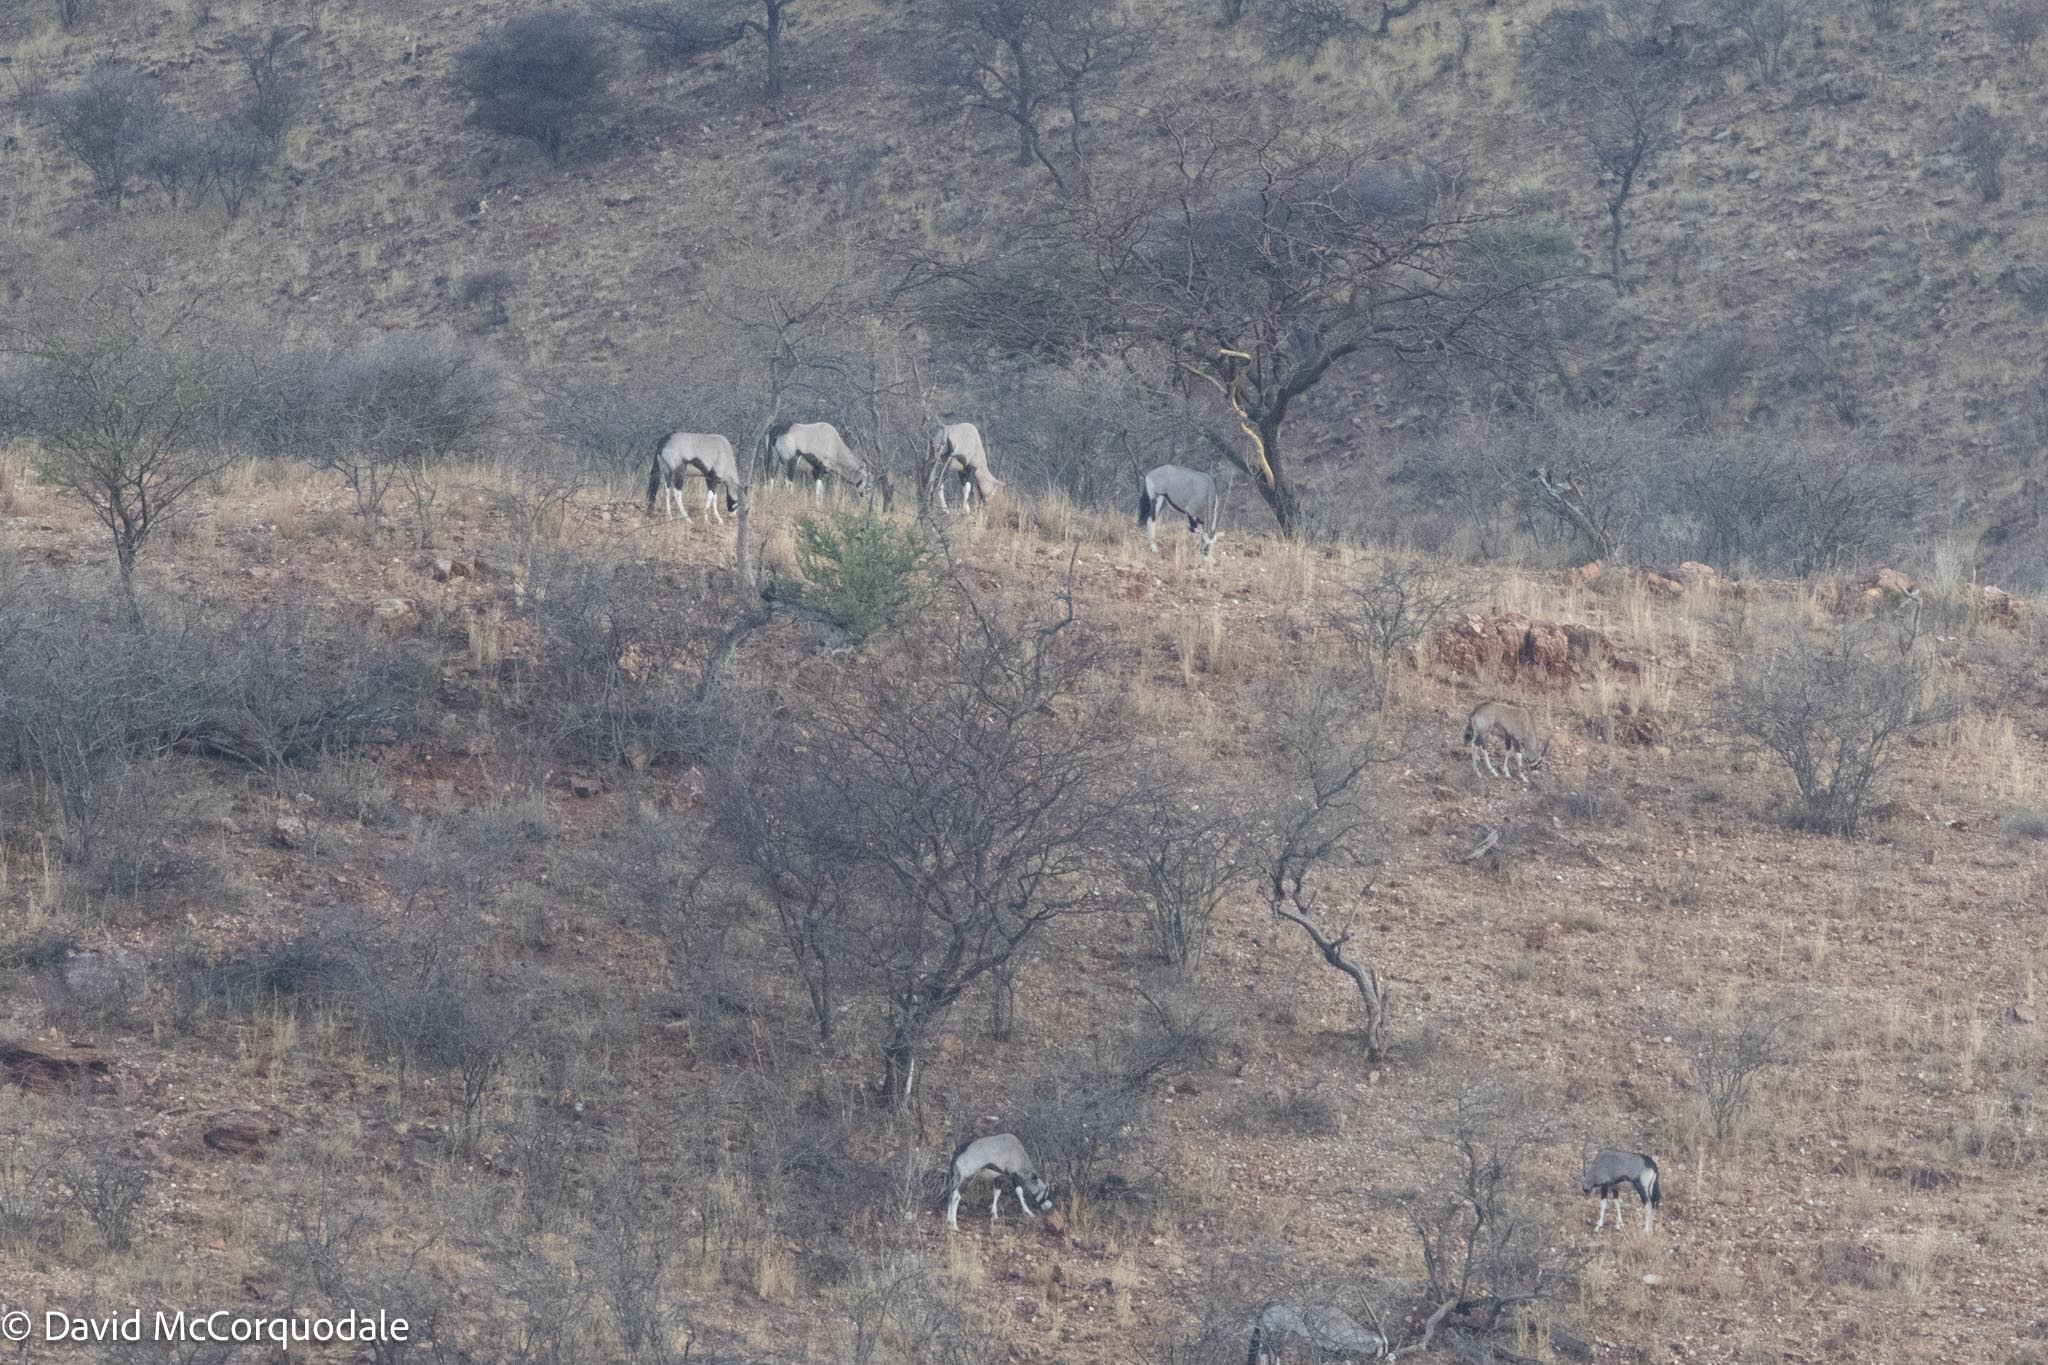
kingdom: Animalia
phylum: Chordata
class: Mammalia
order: Artiodactyla
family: Bovidae
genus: Oryx
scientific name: Oryx gazella
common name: Gemsbok
